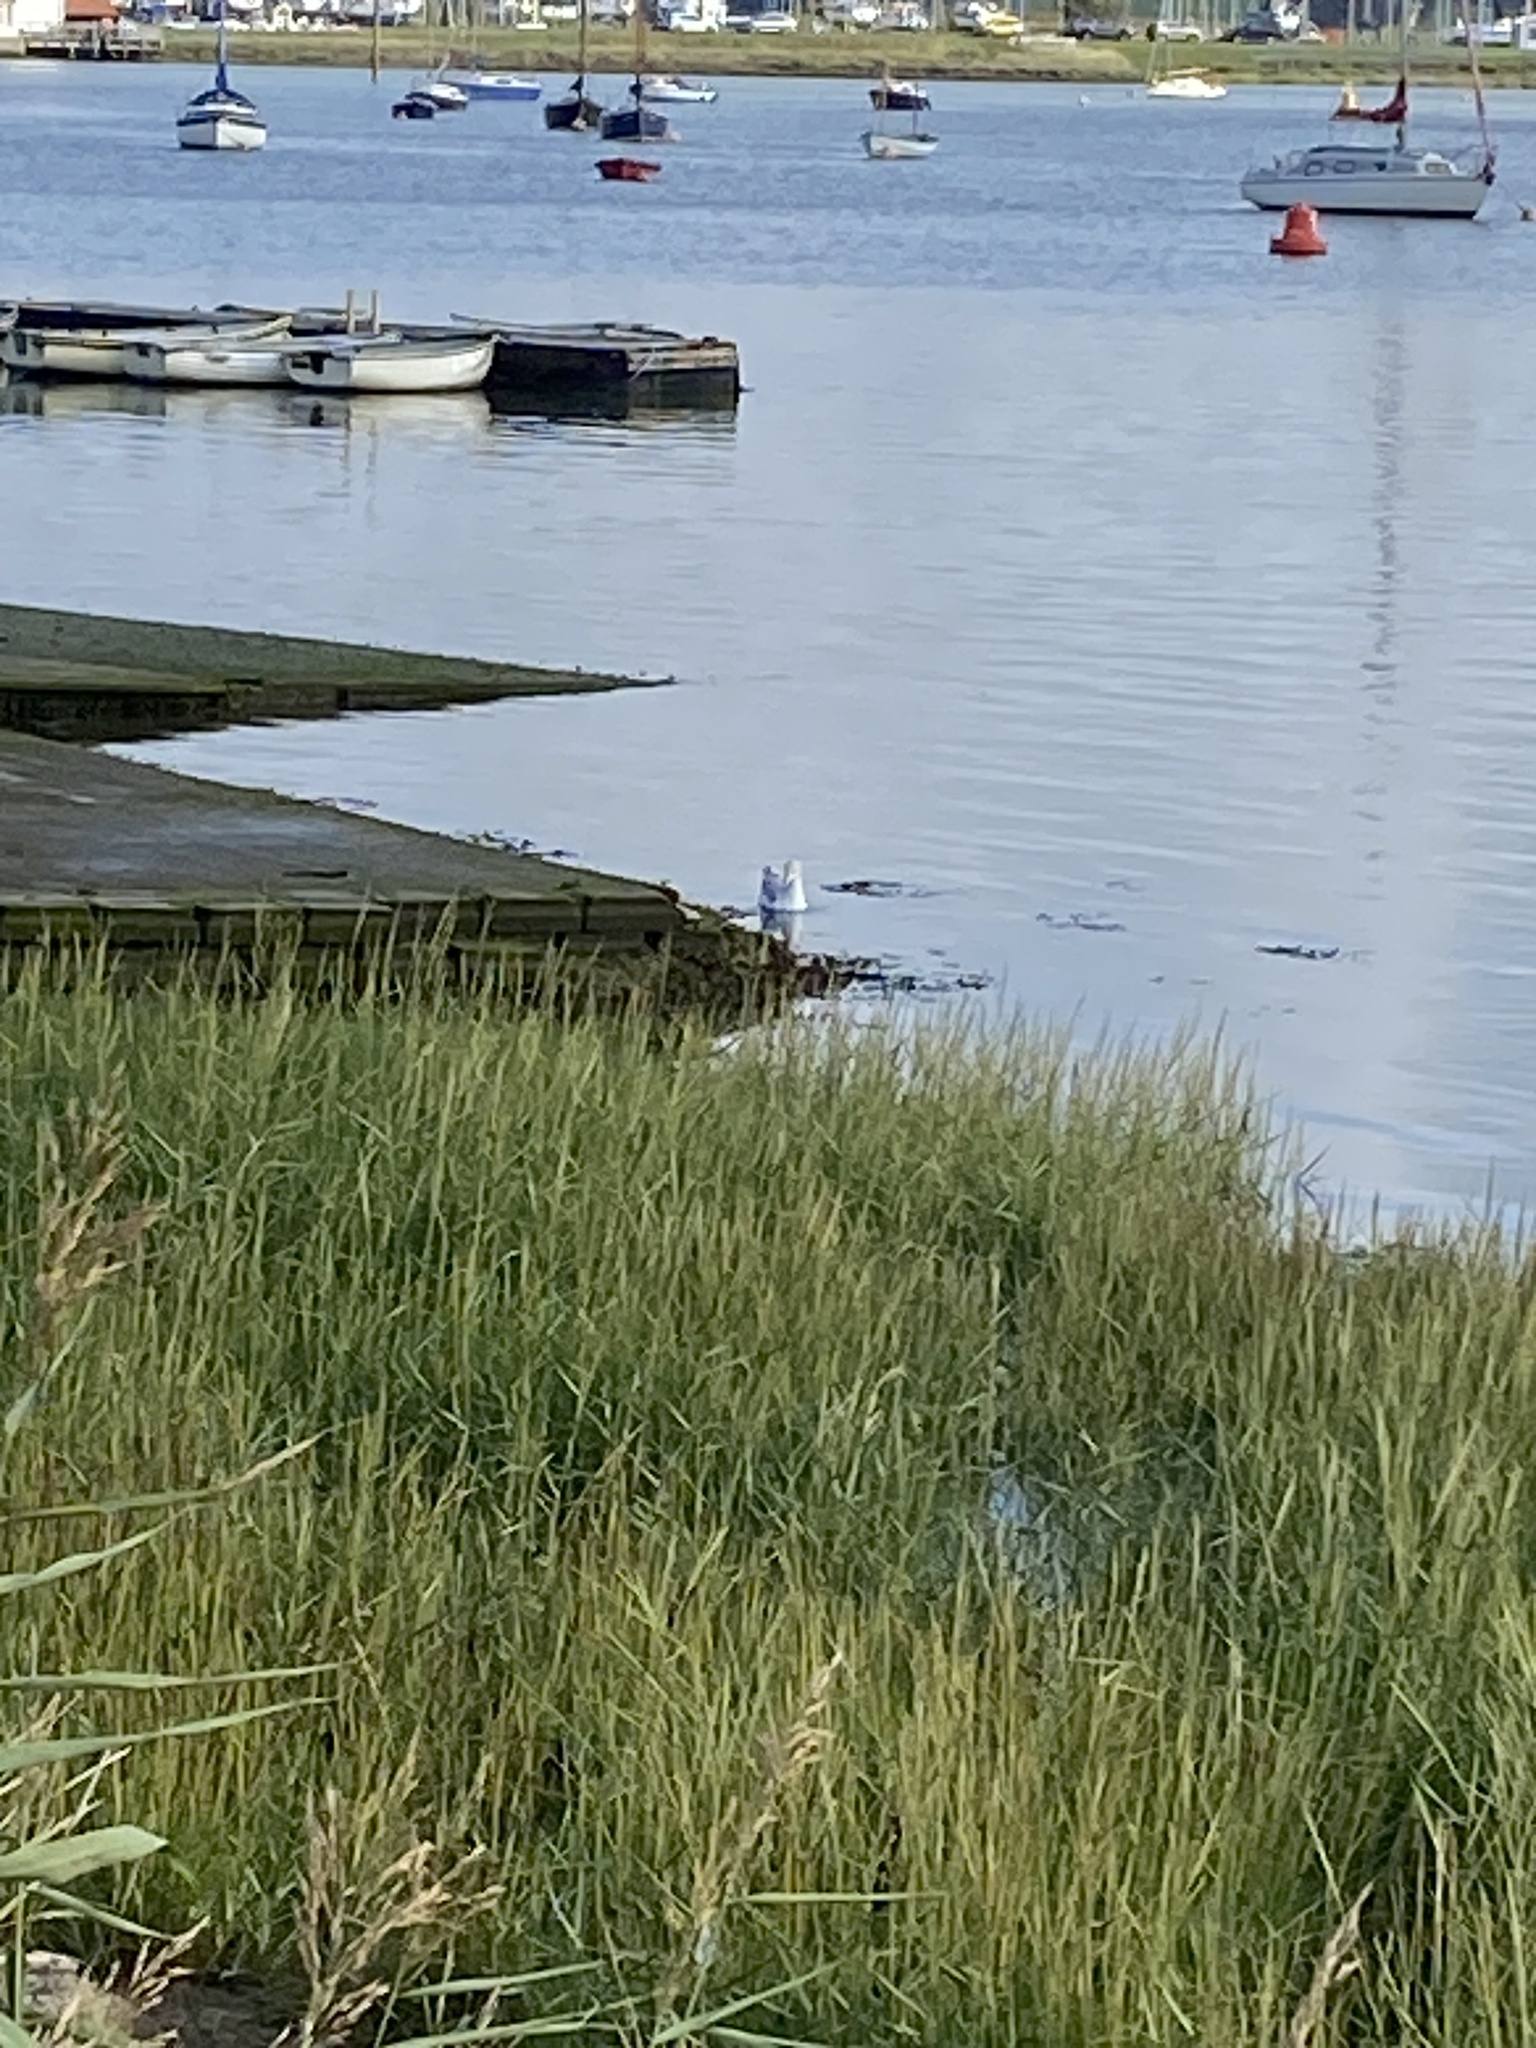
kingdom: Animalia
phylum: Chordata
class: Aves
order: Charadriiformes
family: Laridae
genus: Chroicocephalus
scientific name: Chroicocephalus ridibundus
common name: Black-headed gull
